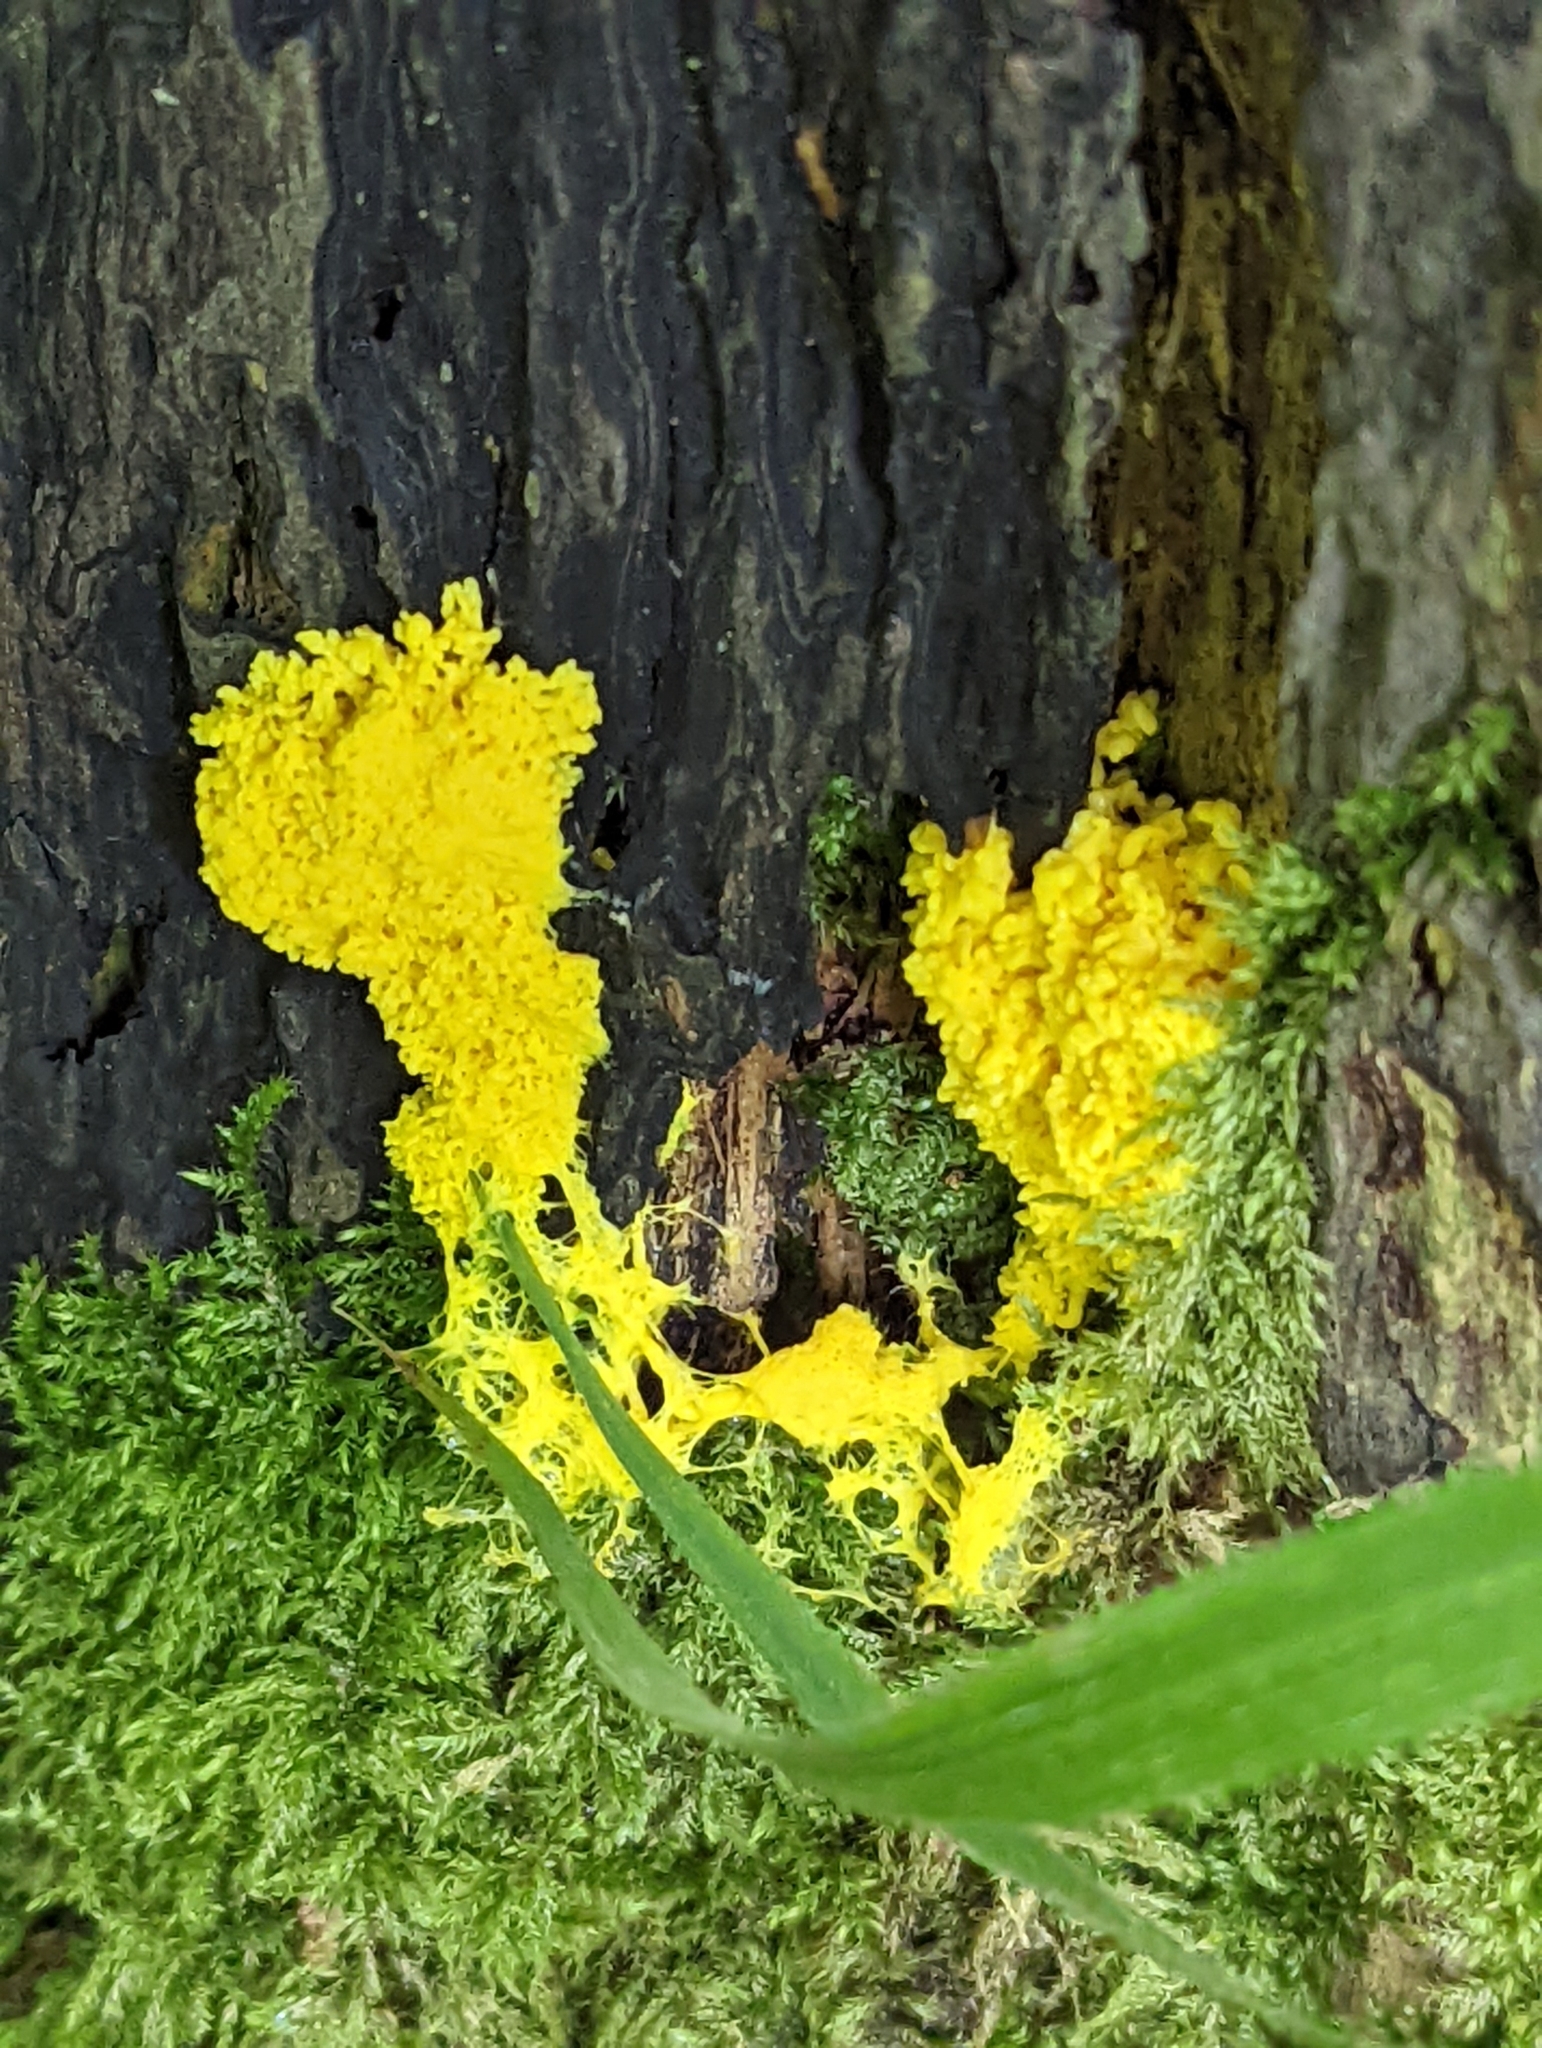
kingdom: Protozoa
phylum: Mycetozoa
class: Myxomycetes
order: Physarales
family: Physaraceae
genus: Fuligo
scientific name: Fuligo septica
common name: Dog vomit slime mold
